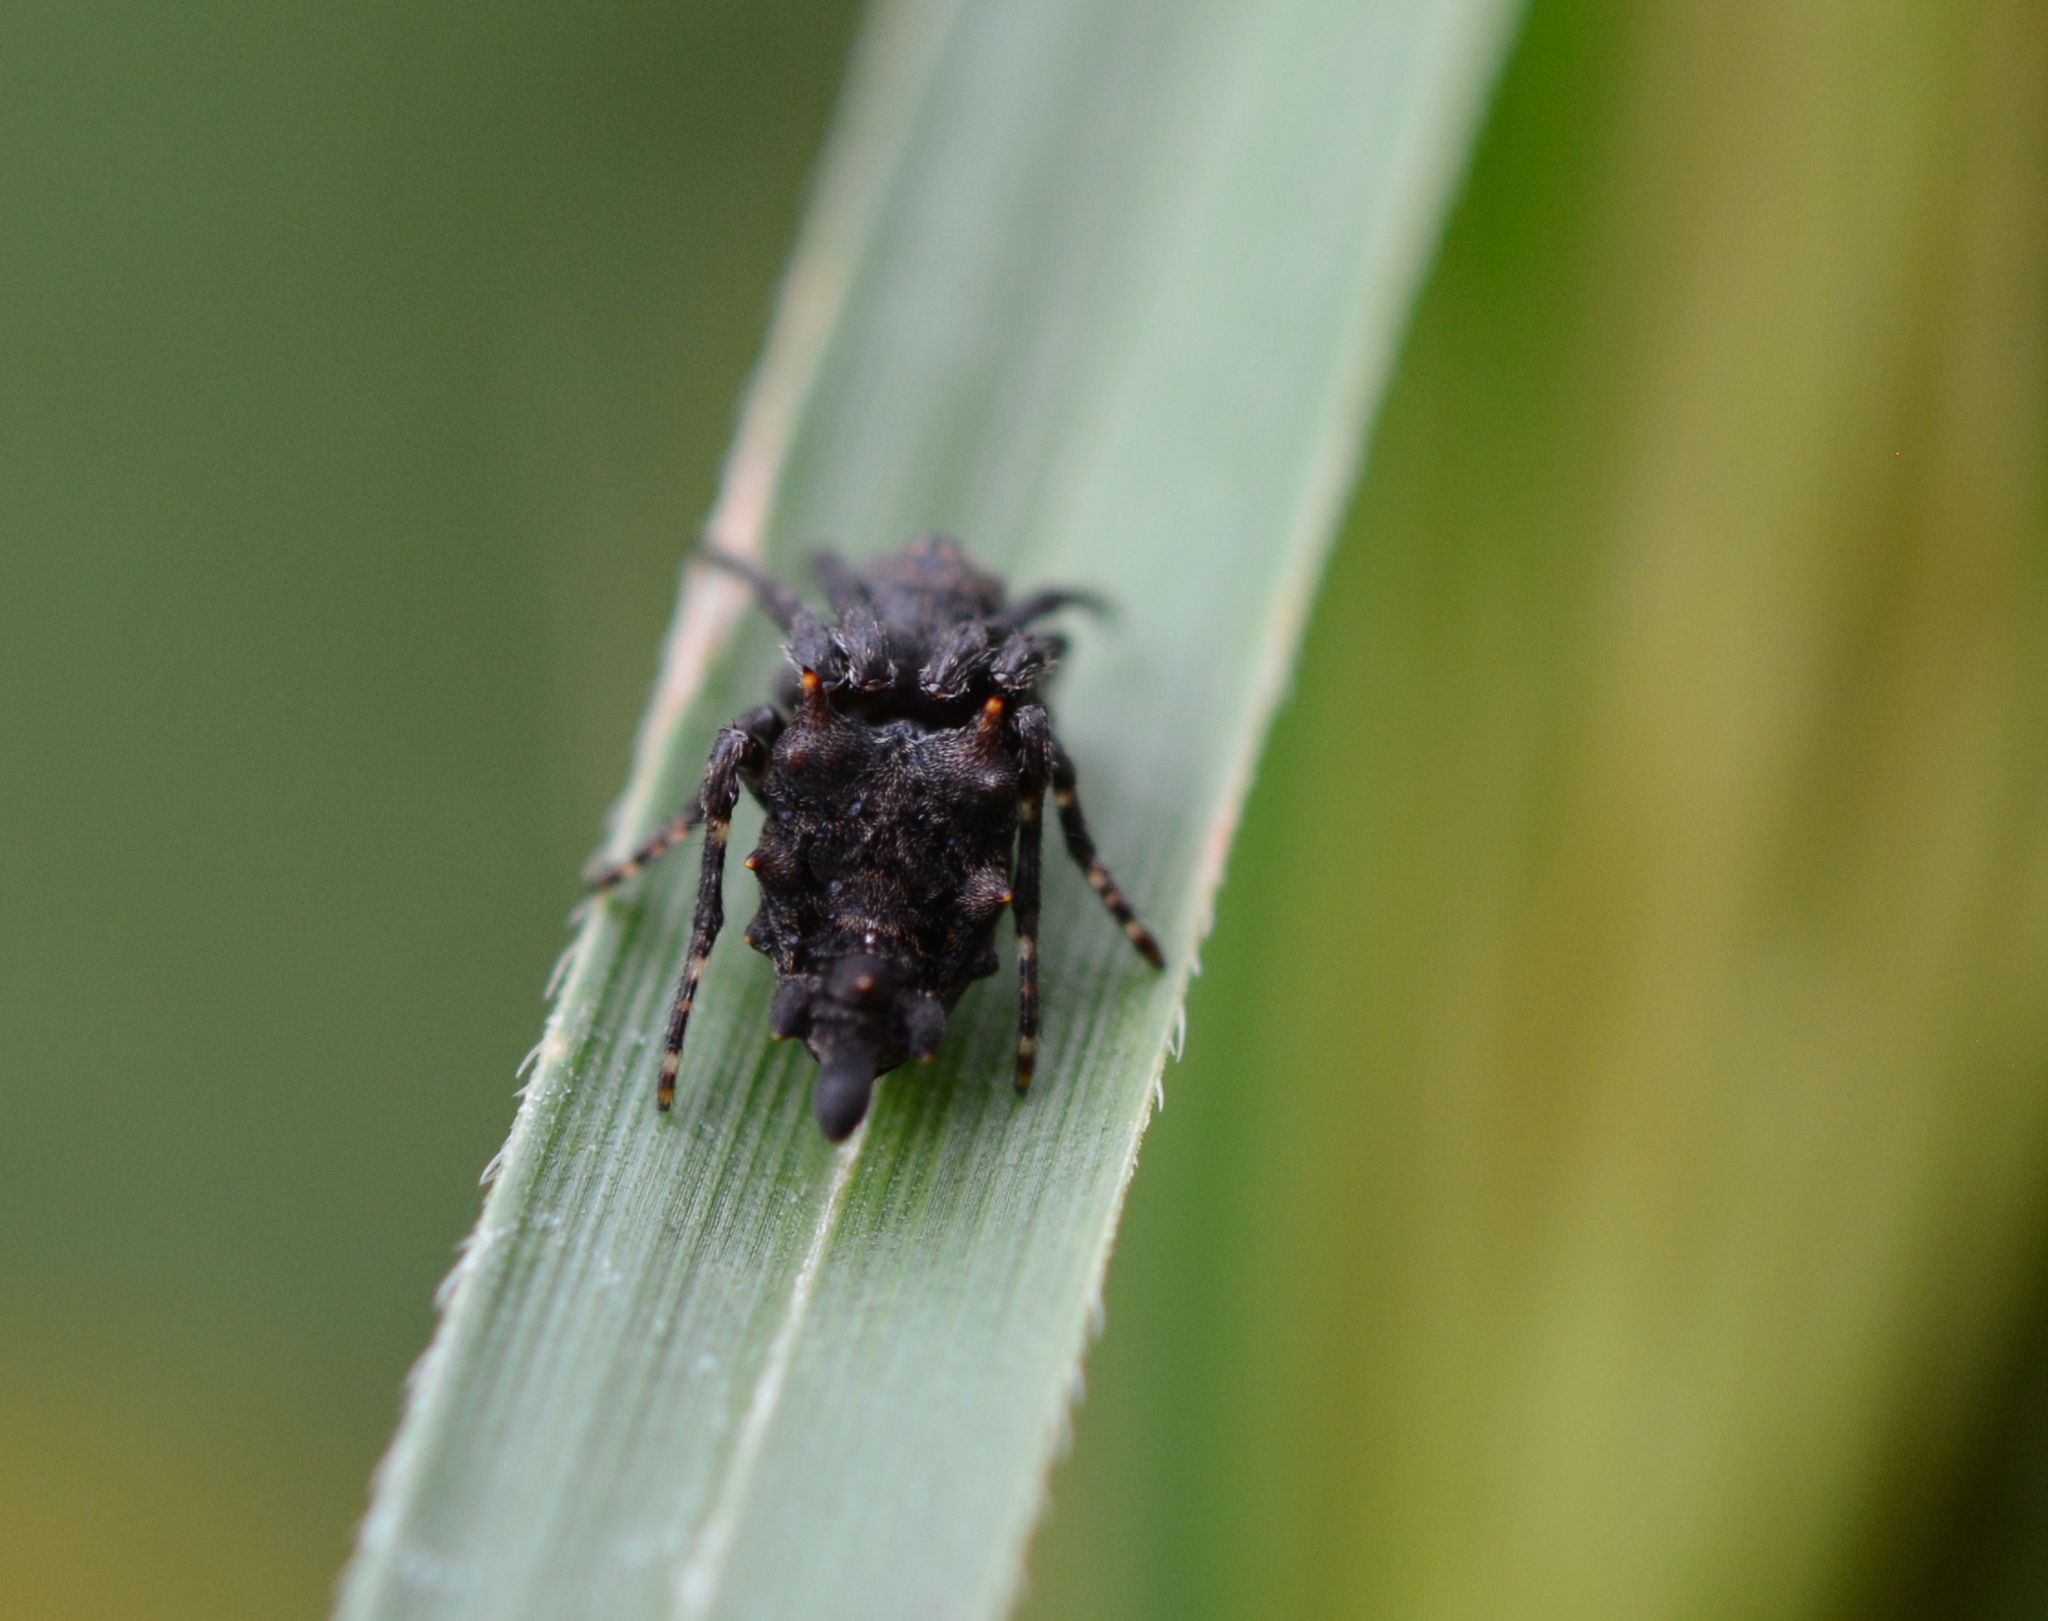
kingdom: Animalia
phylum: Arthropoda
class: Arachnida
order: Araneae
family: Araneidae
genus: Wagneriana
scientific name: Wagneriana tauricornis
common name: Orb weavers
